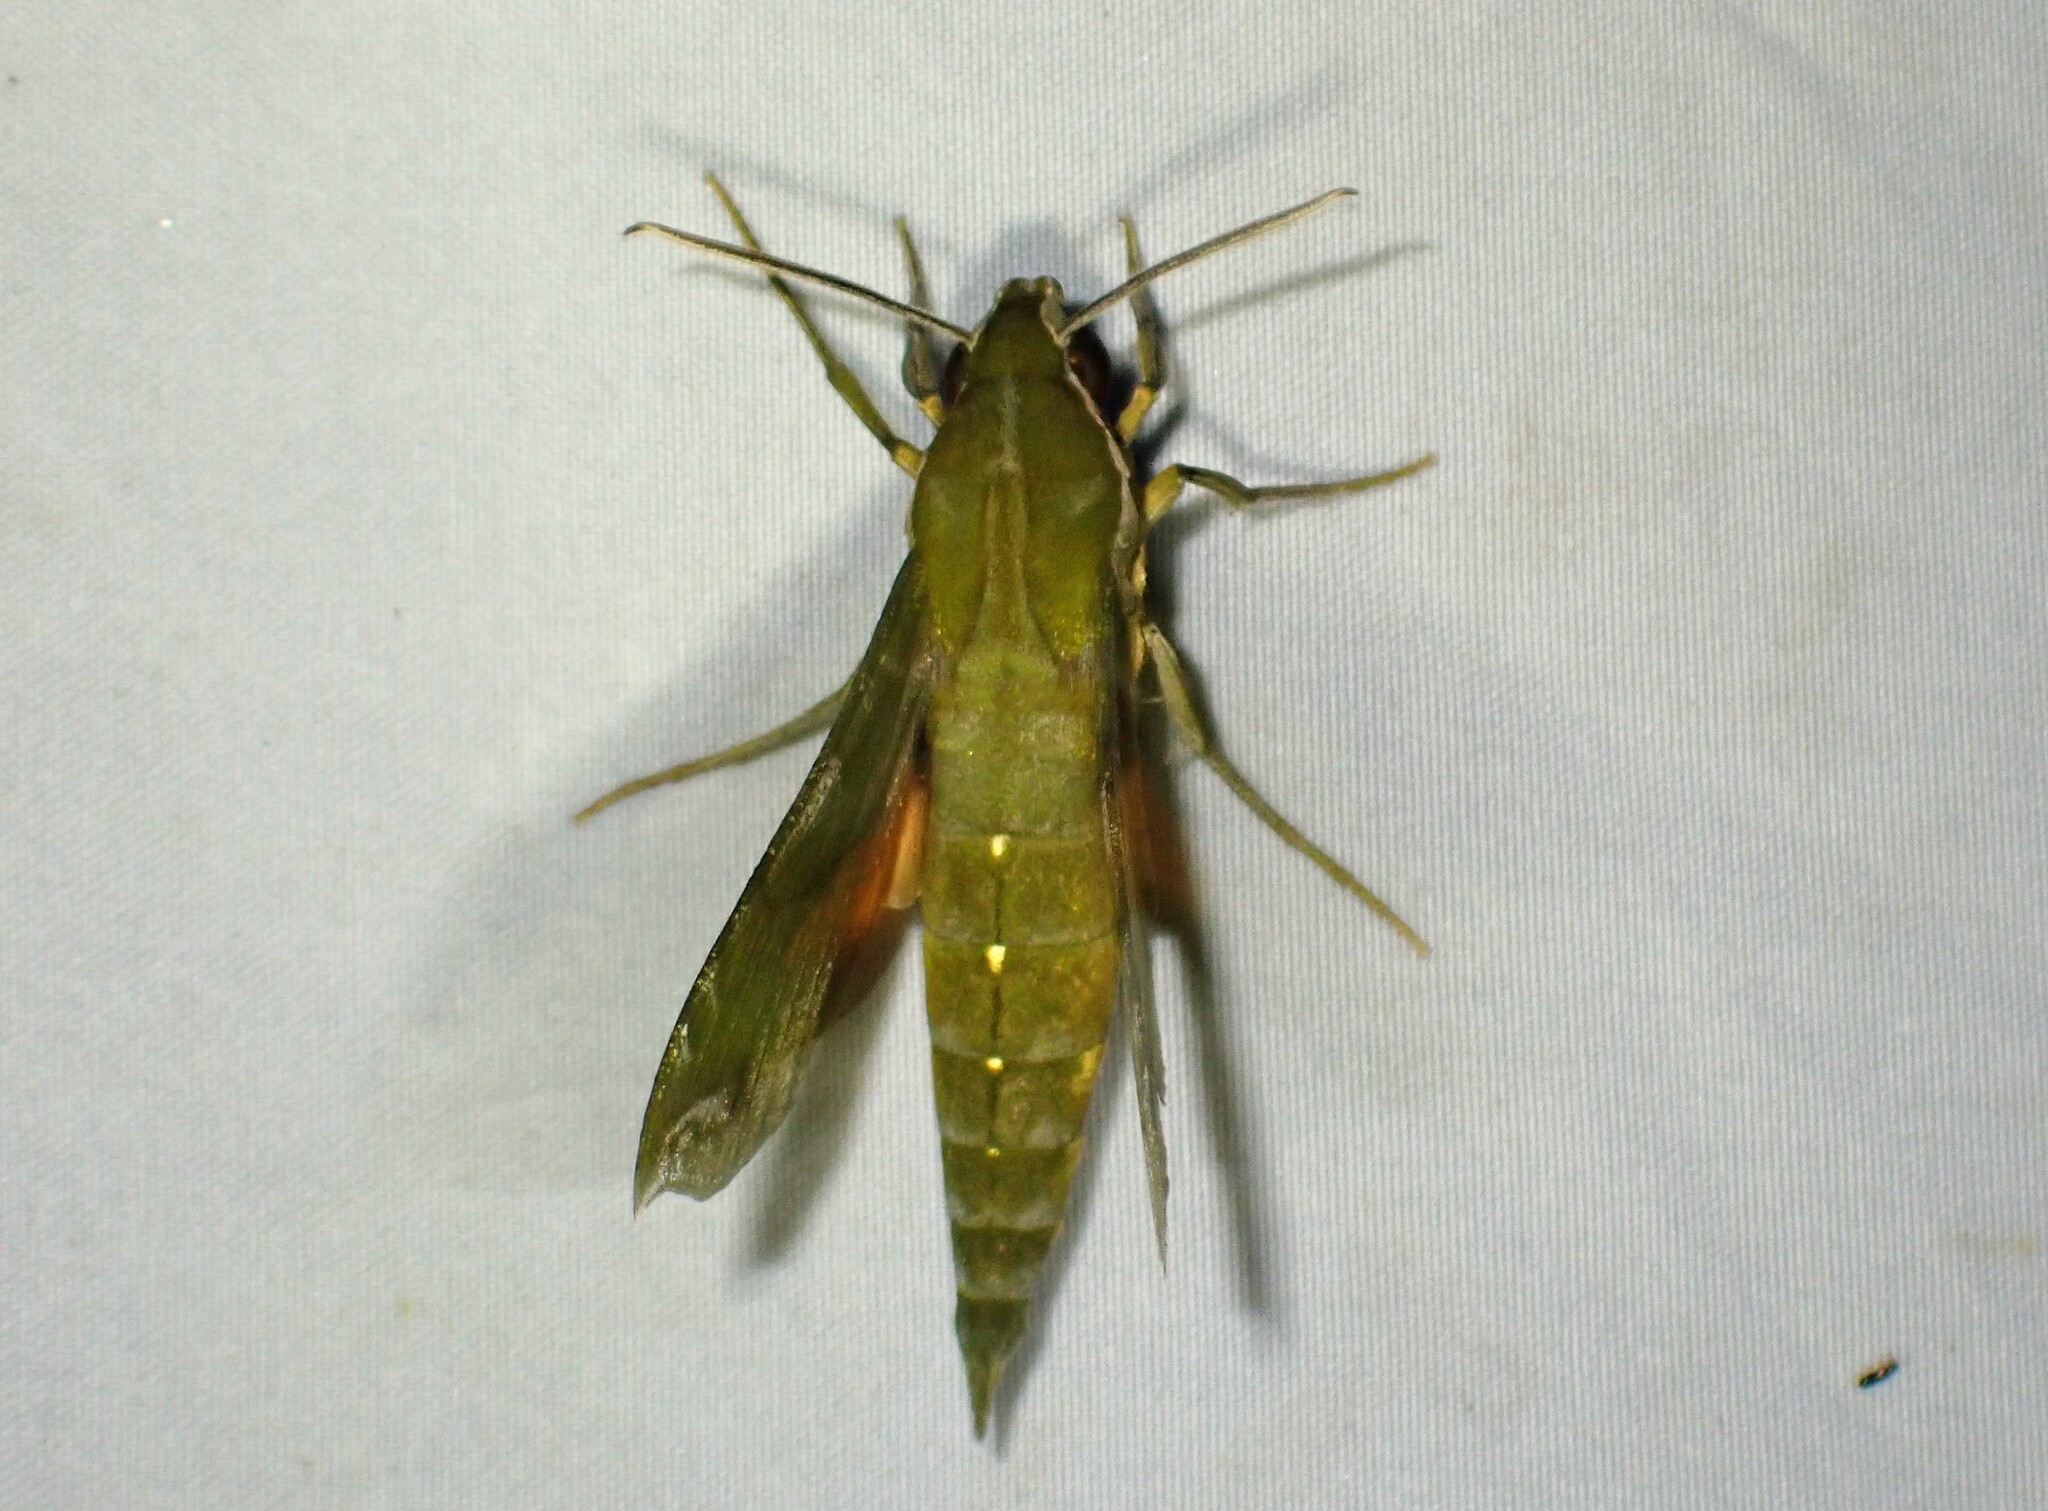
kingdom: Animalia
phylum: Arthropoda
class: Insecta
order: Lepidoptera
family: Sphingidae
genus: Xylophanes
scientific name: Xylophanes pluto
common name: Pluto sphinx
